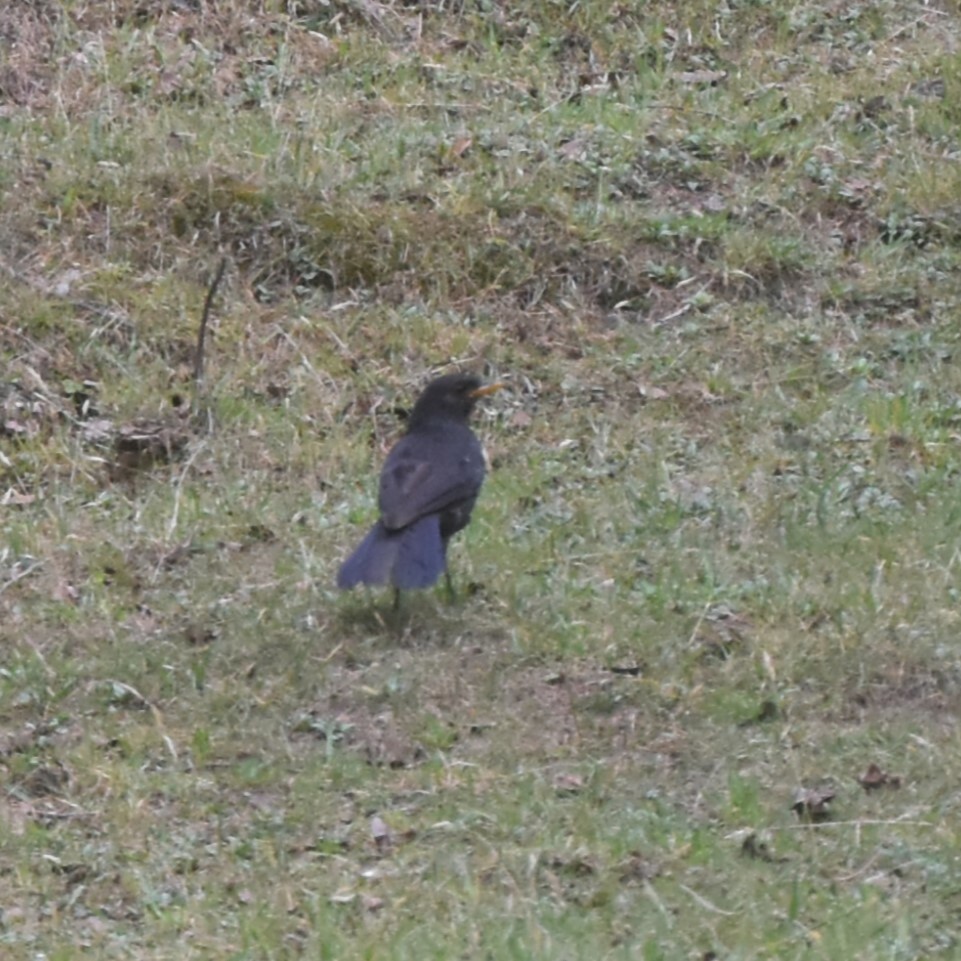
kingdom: Animalia
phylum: Chordata
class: Aves
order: Passeriformes
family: Muscicapidae
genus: Myophonus
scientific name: Myophonus caeruleus
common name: Blue whistling-thrush
